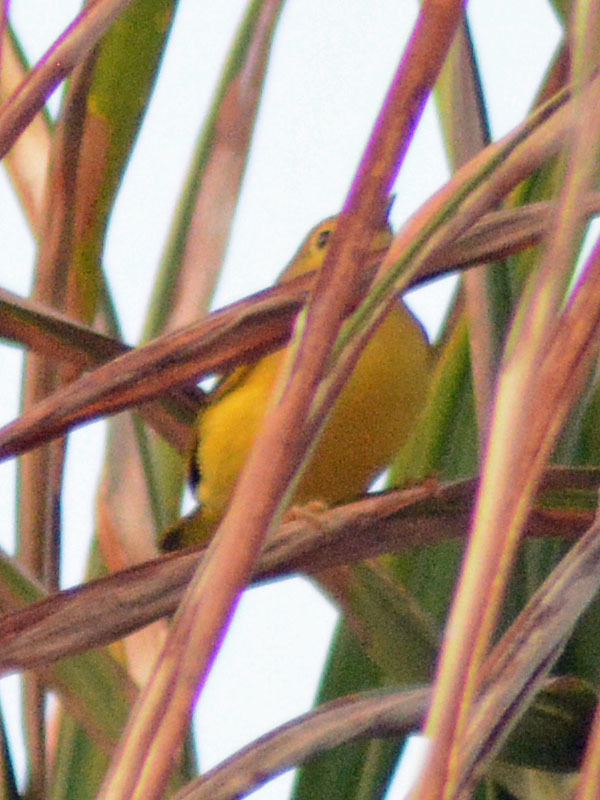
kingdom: Animalia
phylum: Chordata
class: Aves
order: Passeriformes
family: Parulidae
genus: Cardellina
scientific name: Cardellina pusilla
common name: Wilson's warbler
